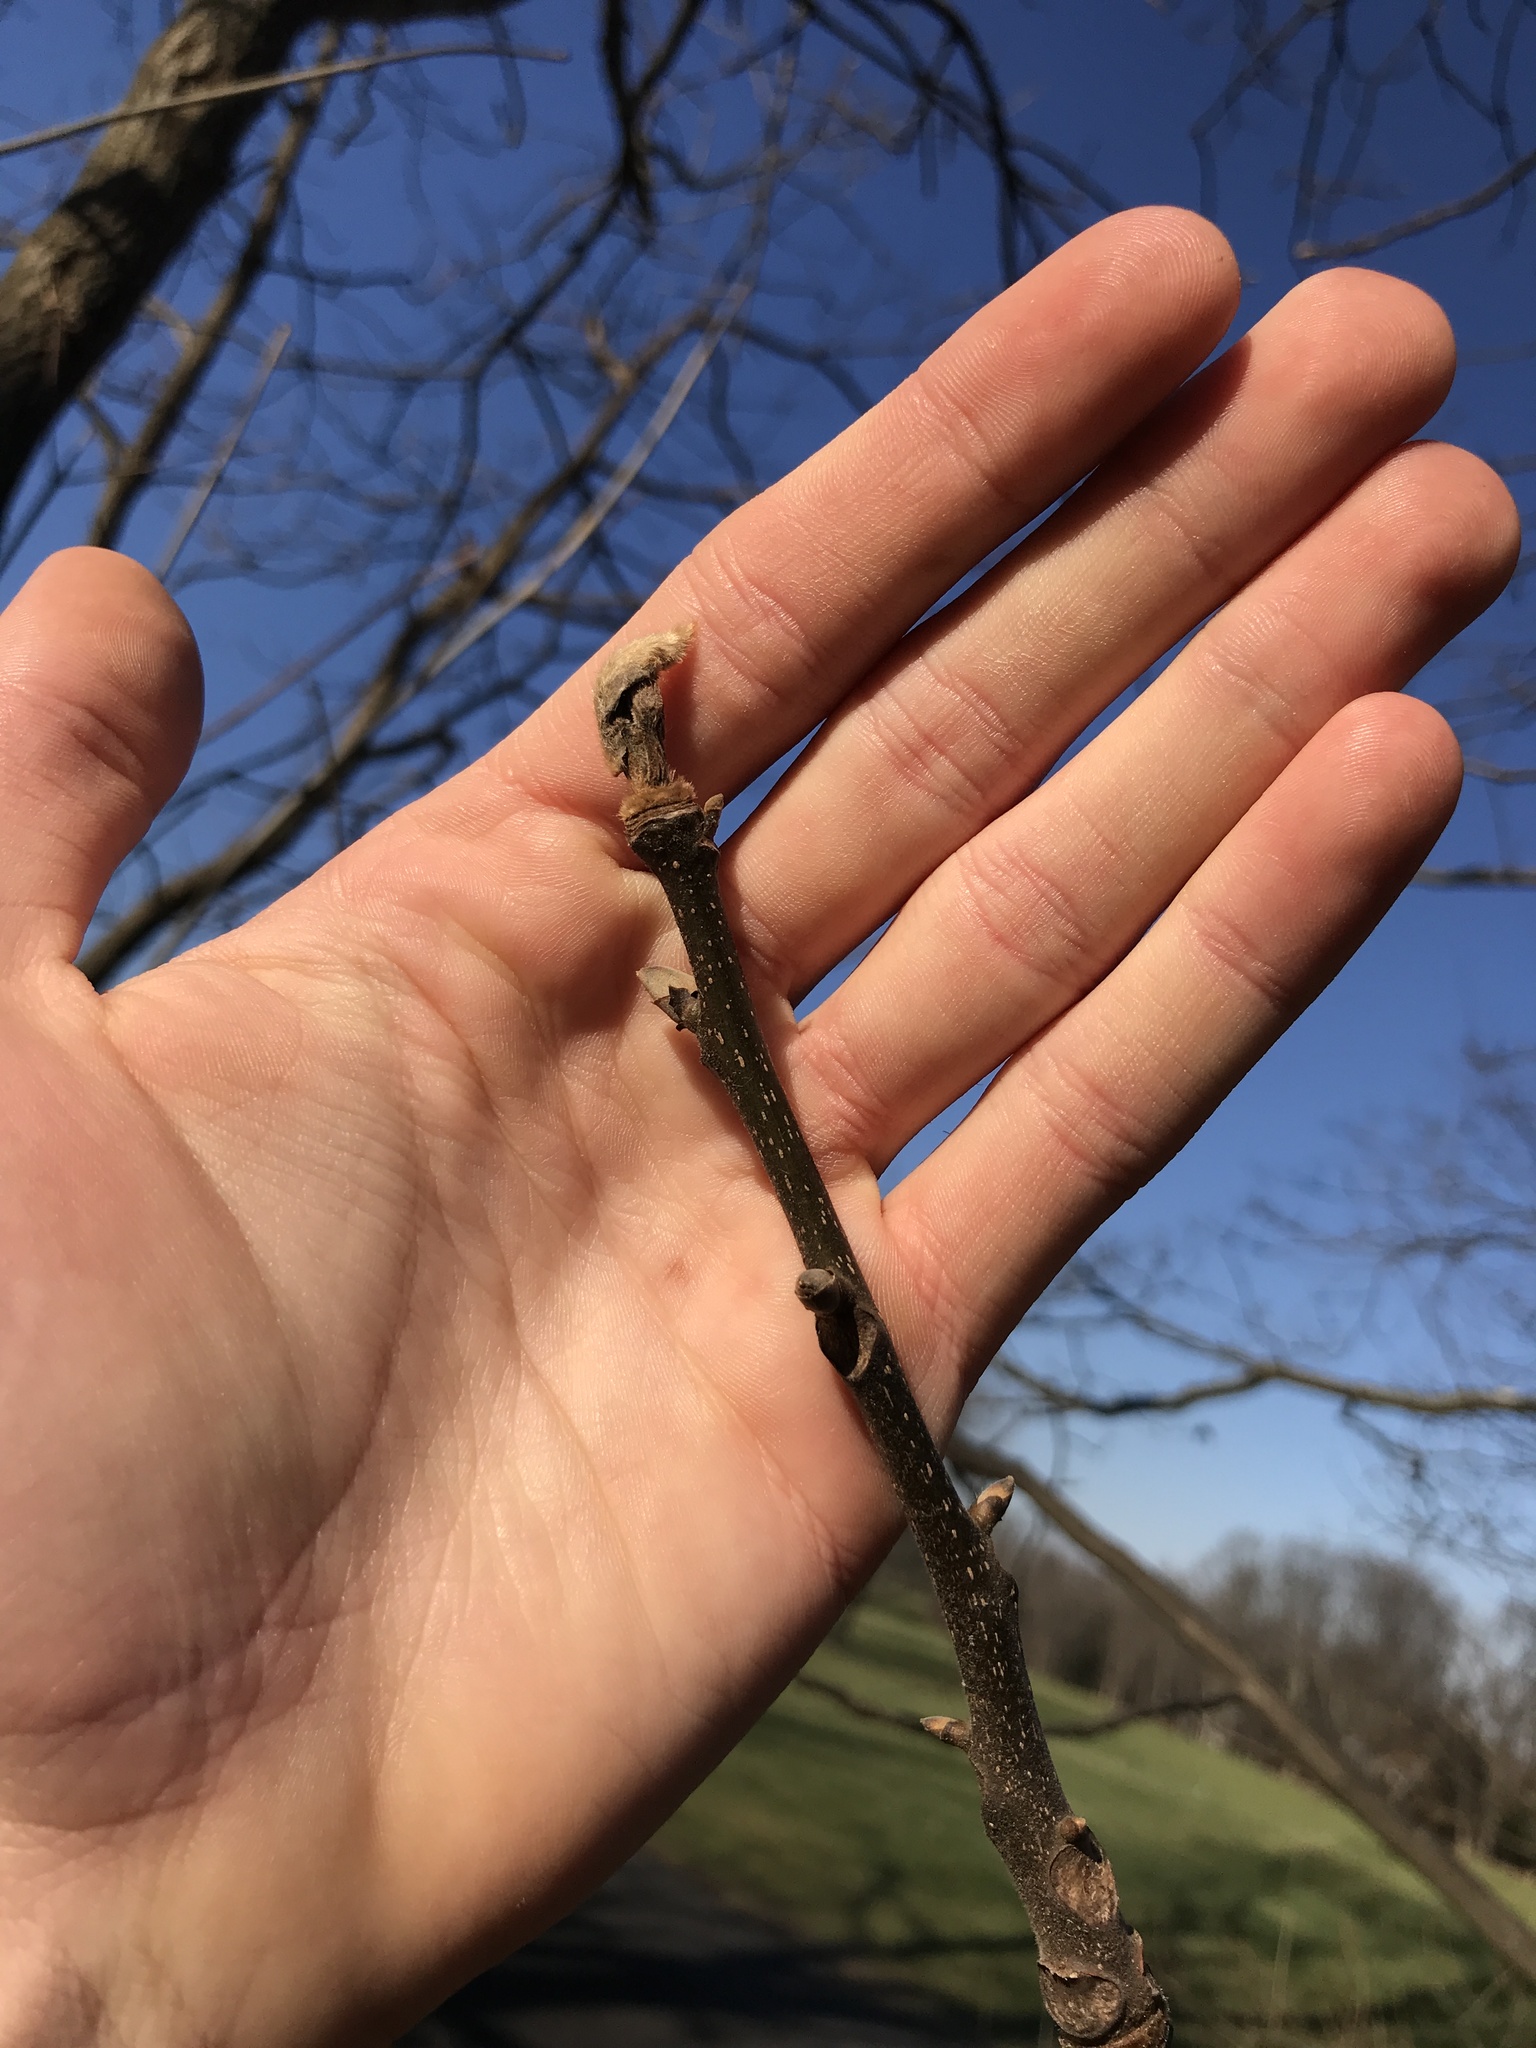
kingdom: Plantae
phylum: Tracheophyta
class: Magnoliopsida
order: Fagales
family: Juglandaceae
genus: Carya
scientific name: Carya ovata
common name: Shagbark hickory
